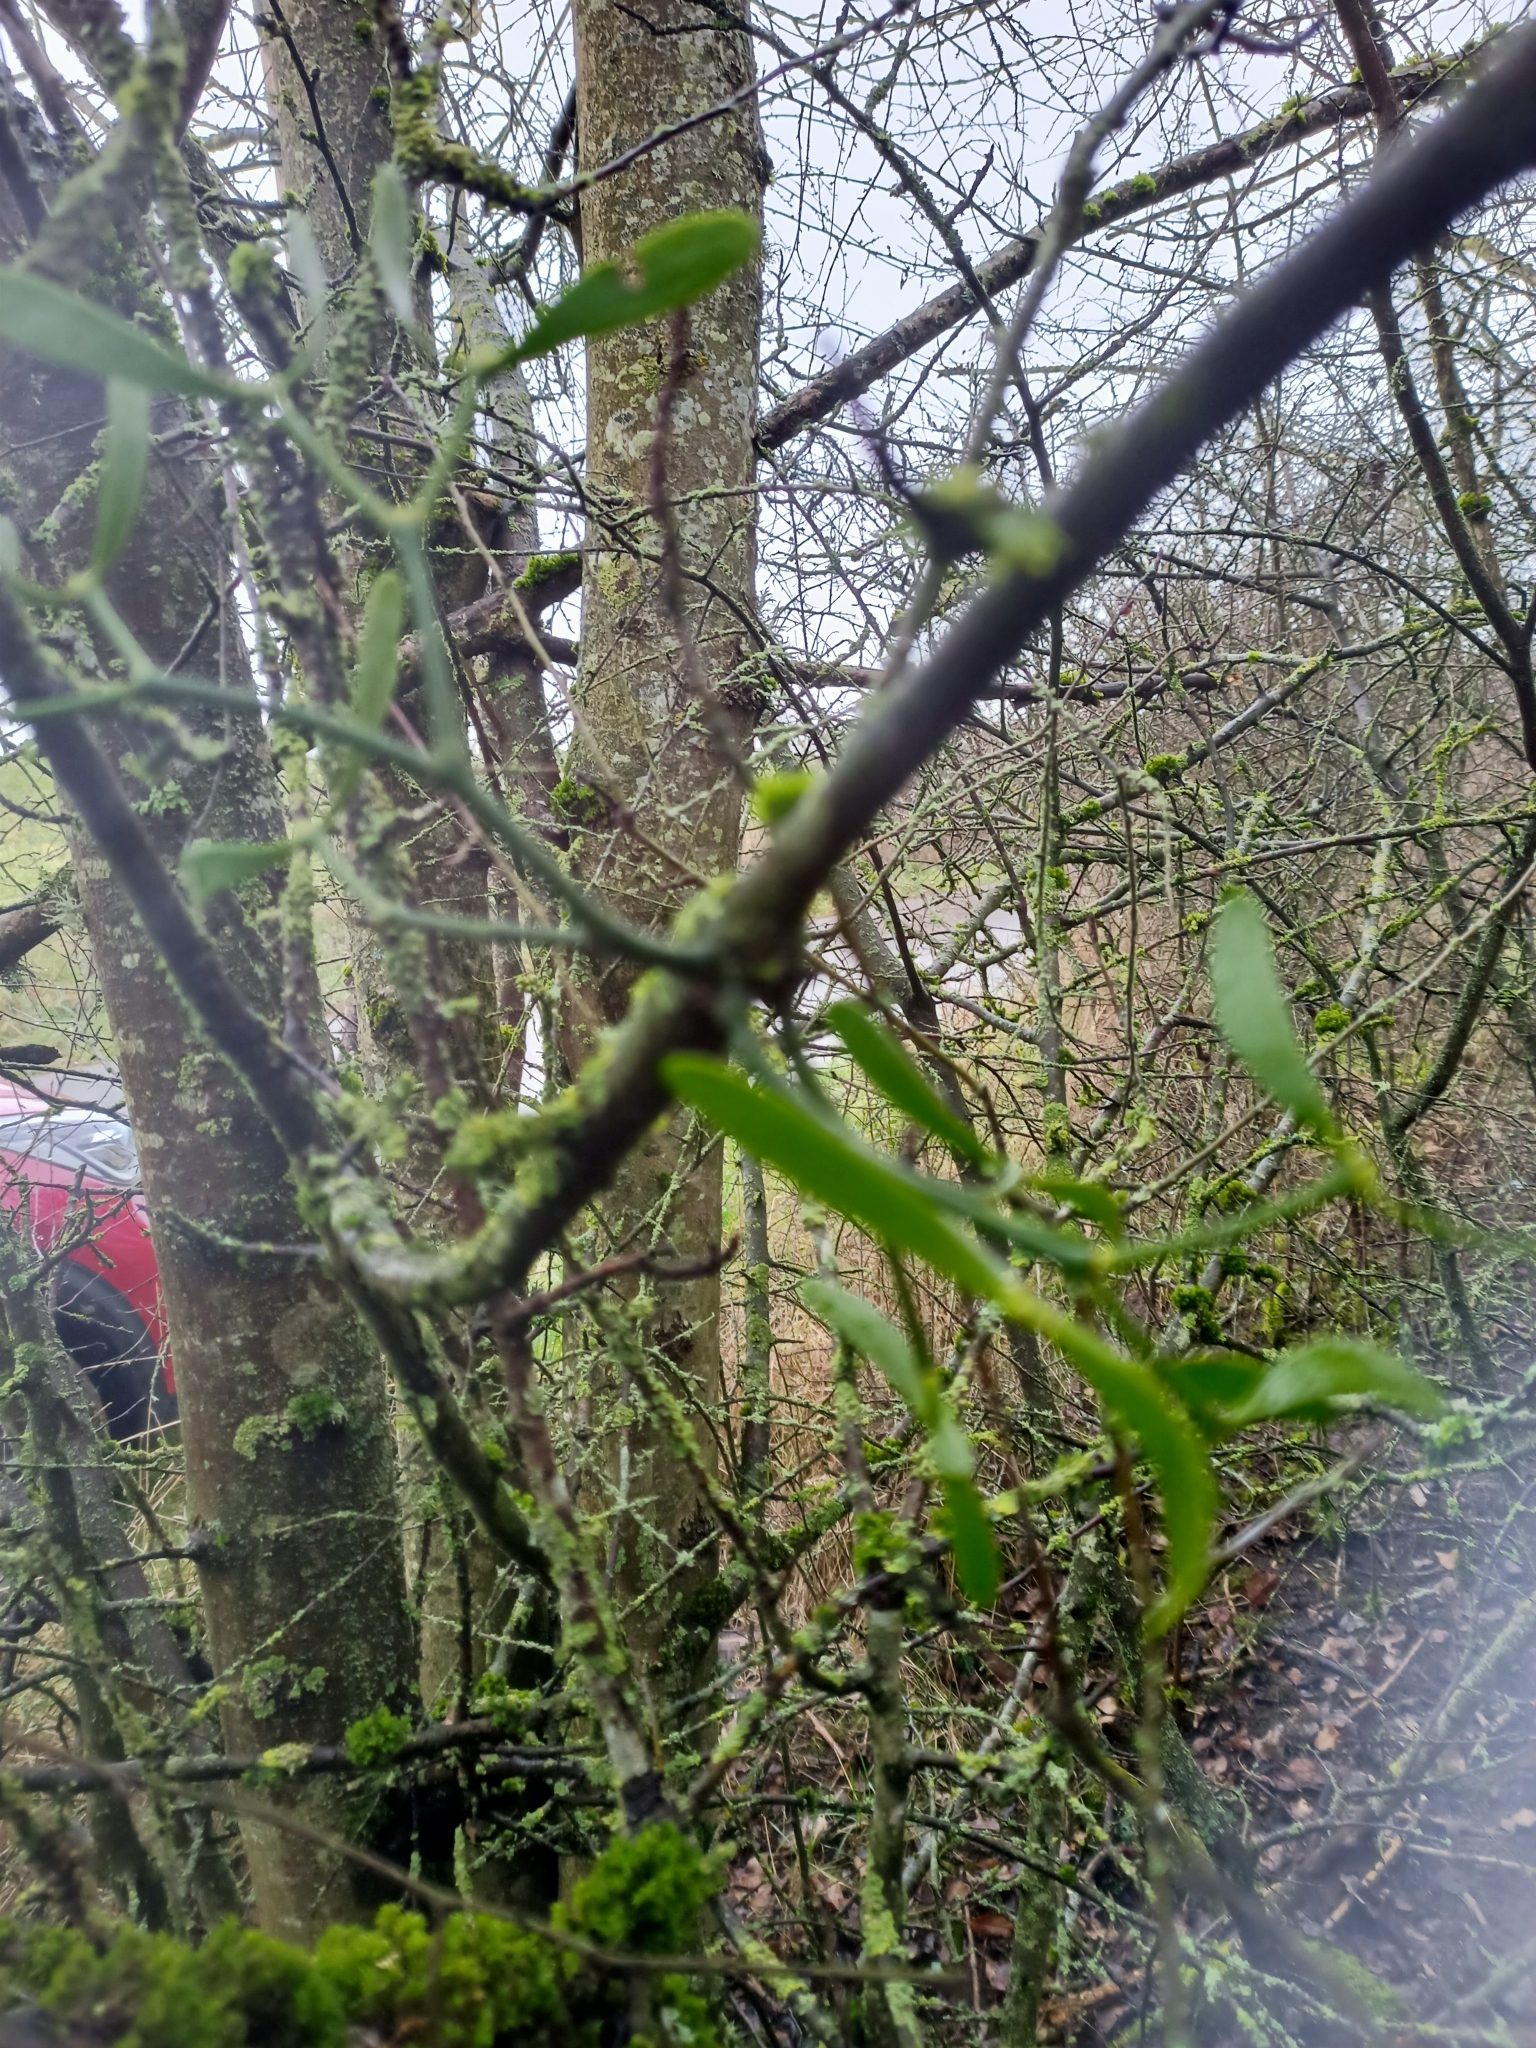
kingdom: Plantae
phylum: Tracheophyta
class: Magnoliopsida
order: Santalales
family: Viscaceae
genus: Viscum
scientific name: Viscum album
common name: Mistletoe
